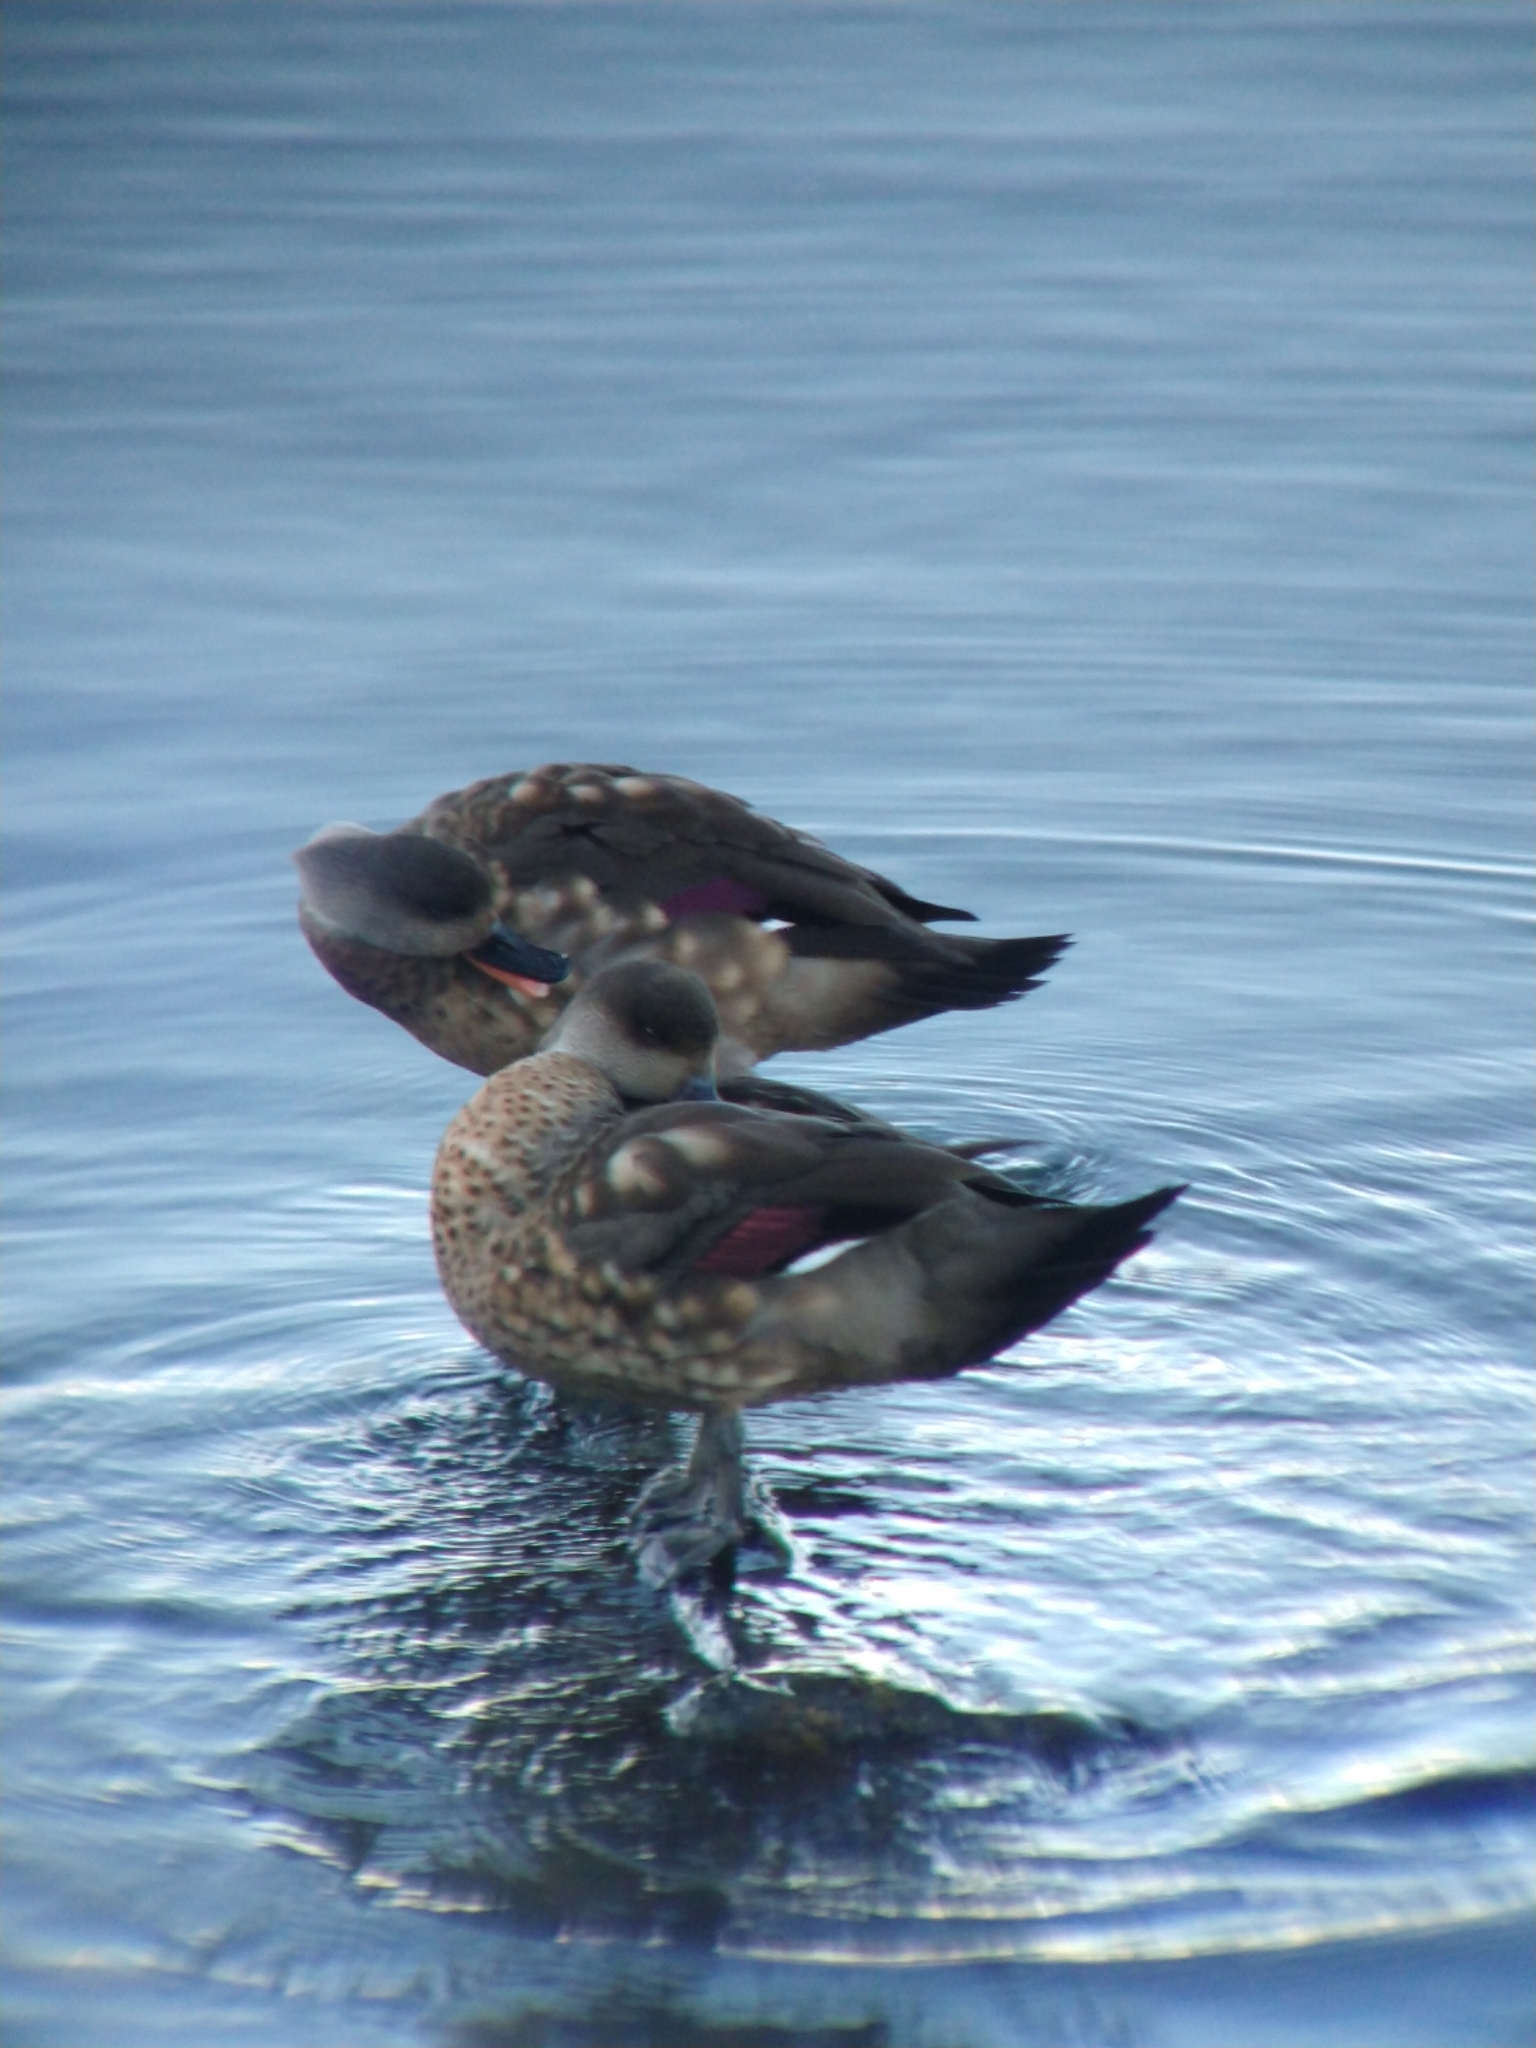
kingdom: Animalia
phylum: Chordata
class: Aves
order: Anseriformes
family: Anatidae
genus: Lophonetta
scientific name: Lophonetta specularioides
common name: Crested duck
